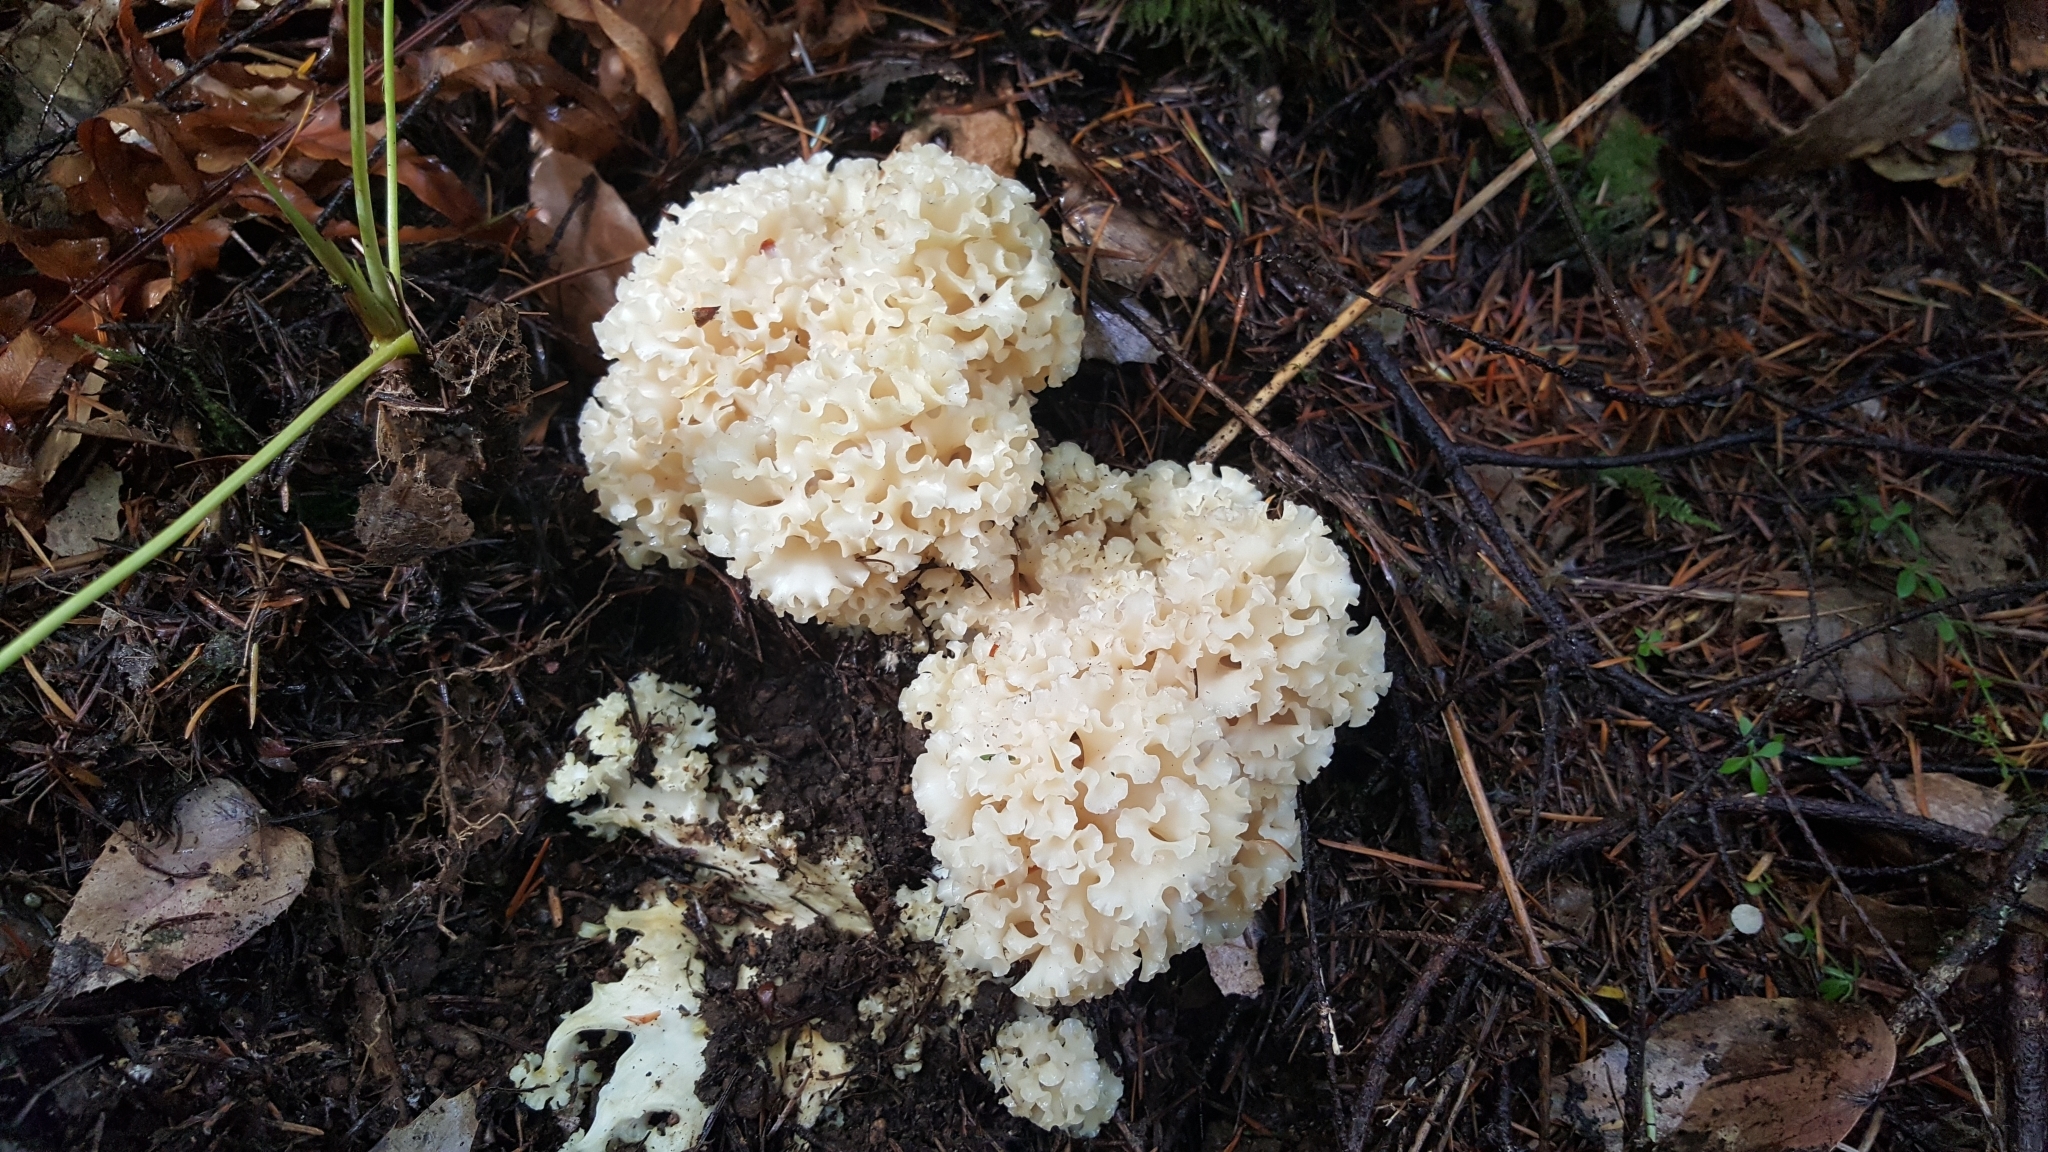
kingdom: Fungi
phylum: Basidiomycota
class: Agaricomycetes
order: Polyporales
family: Sparassidaceae
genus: Sparassis
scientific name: Sparassis radicata
